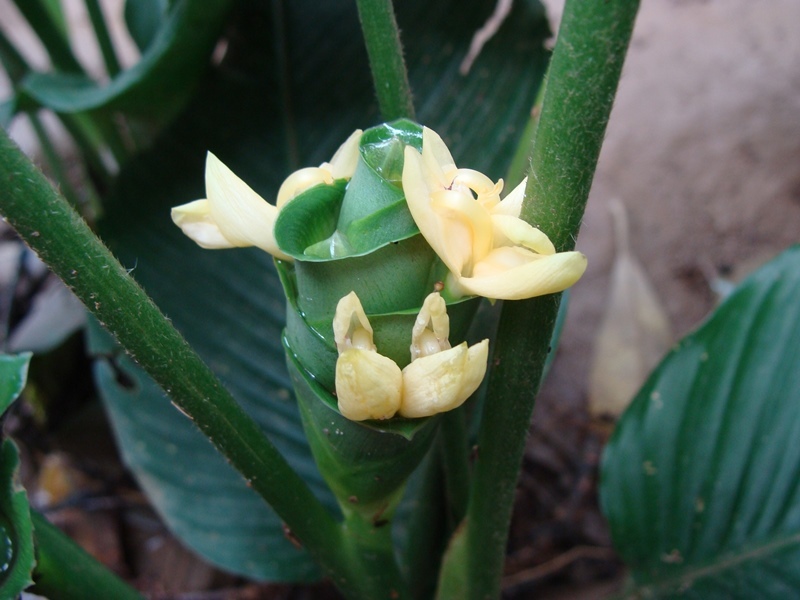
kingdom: Plantae
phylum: Tracheophyta
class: Liliopsida
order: Zingiberales
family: Marantaceae
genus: Goeppertia
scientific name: Goeppertia allouia
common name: Sweet corn-tuber
